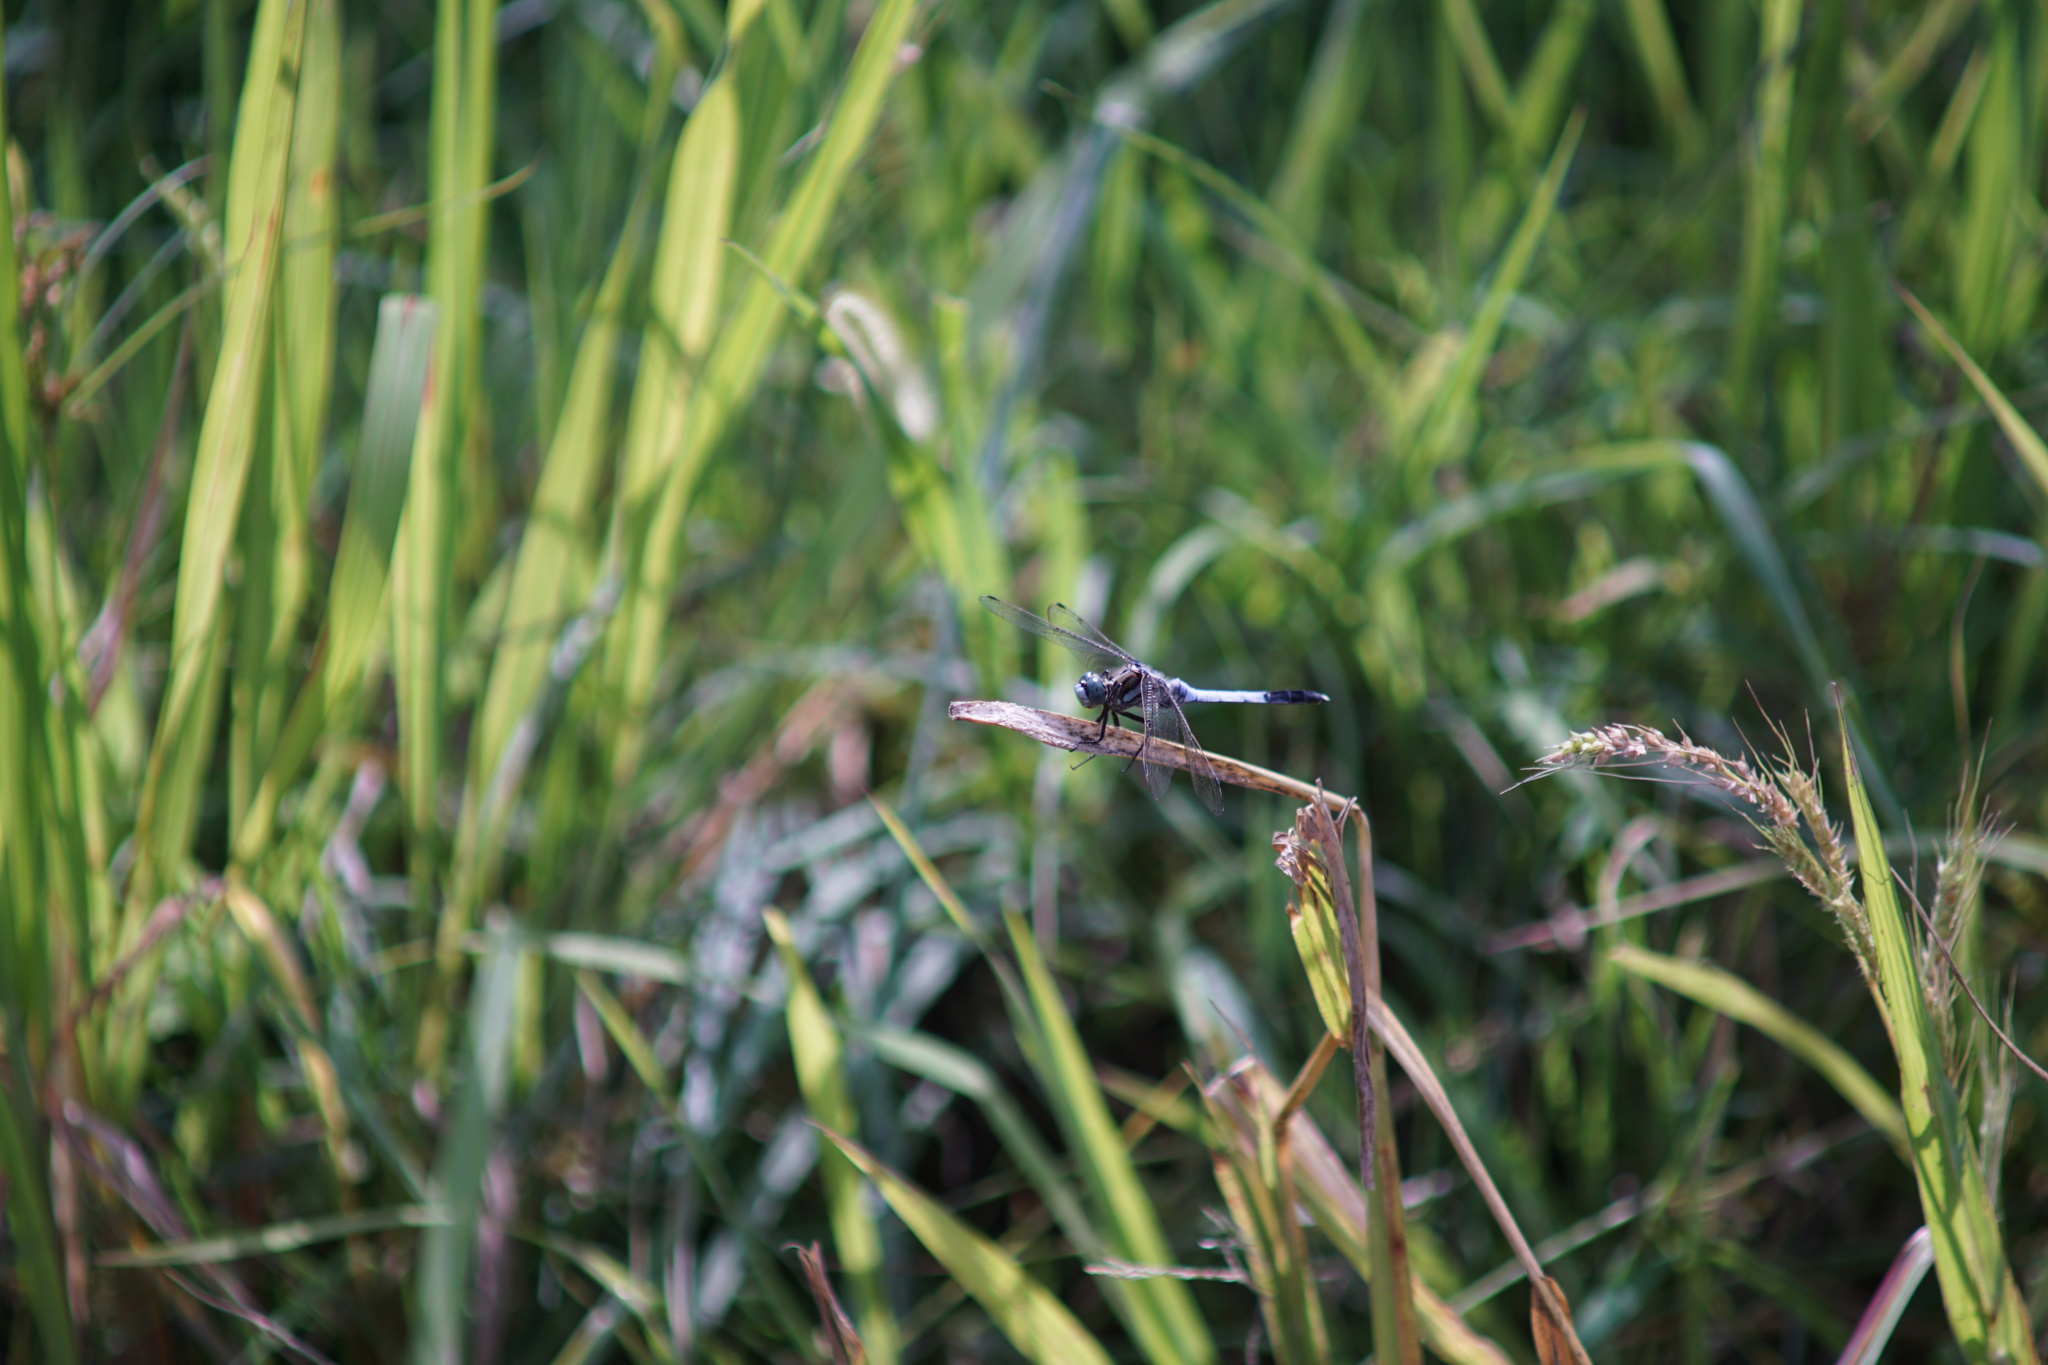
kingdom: Animalia
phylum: Arthropoda
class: Insecta
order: Odonata
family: Libellulidae
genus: Orthetrum
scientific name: Orthetrum albistylum
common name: White-tailed skimmer
